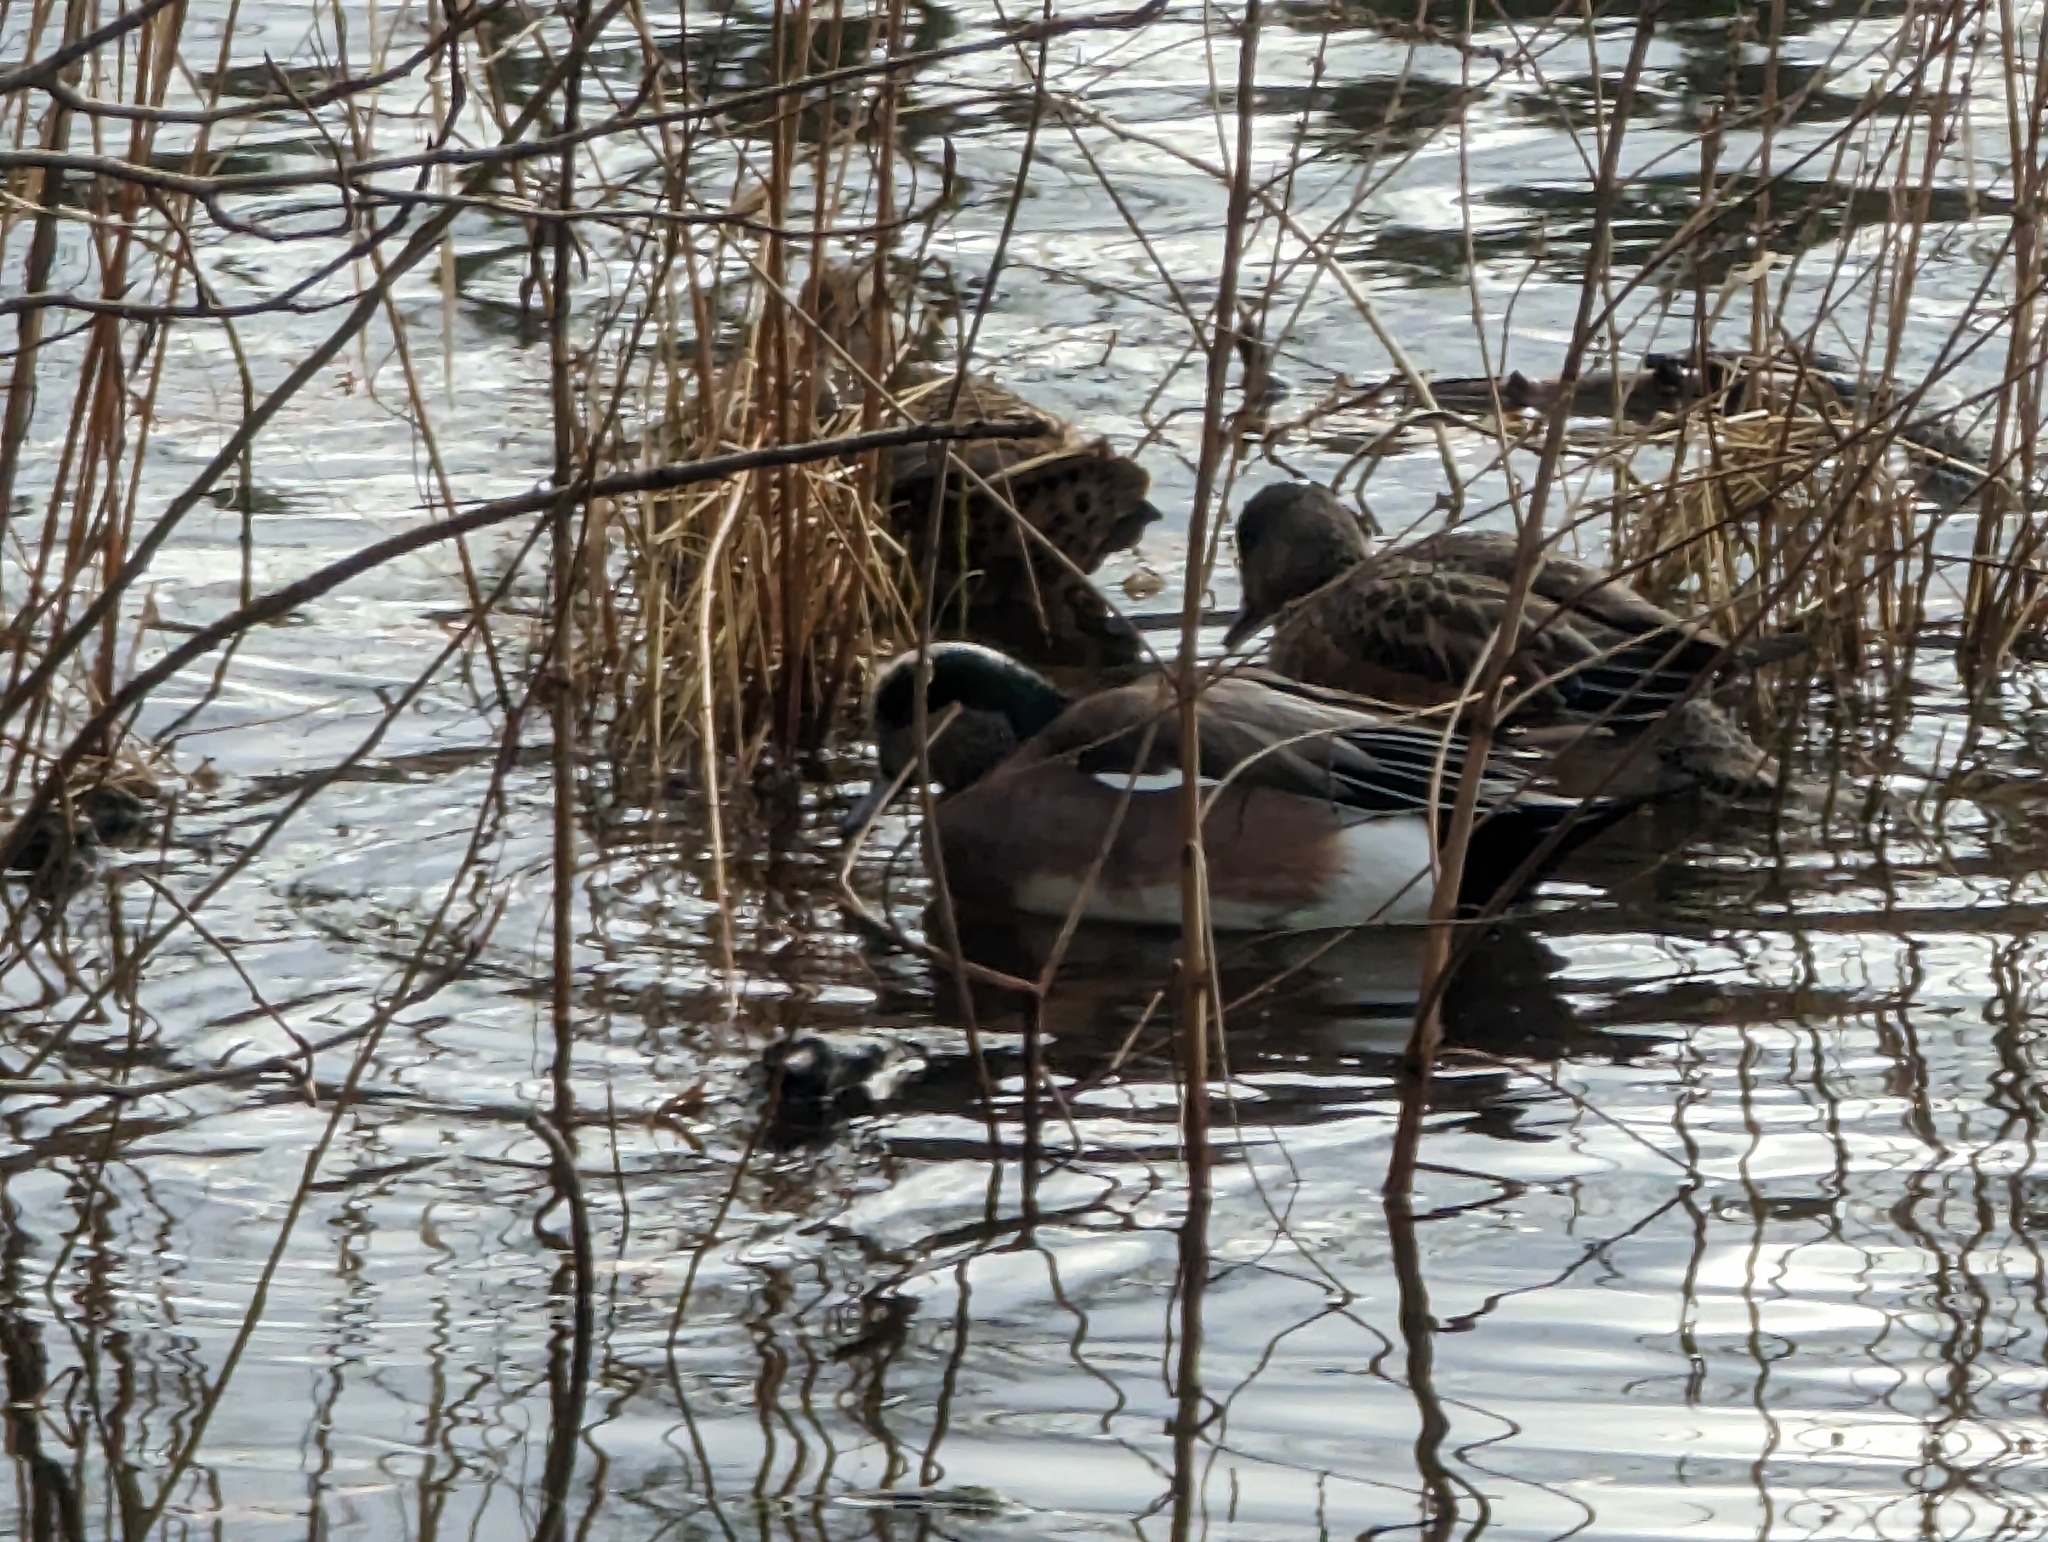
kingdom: Animalia
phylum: Chordata
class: Aves
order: Anseriformes
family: Anatidae
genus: Mareca
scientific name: Mareca americana
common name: American wigeon
